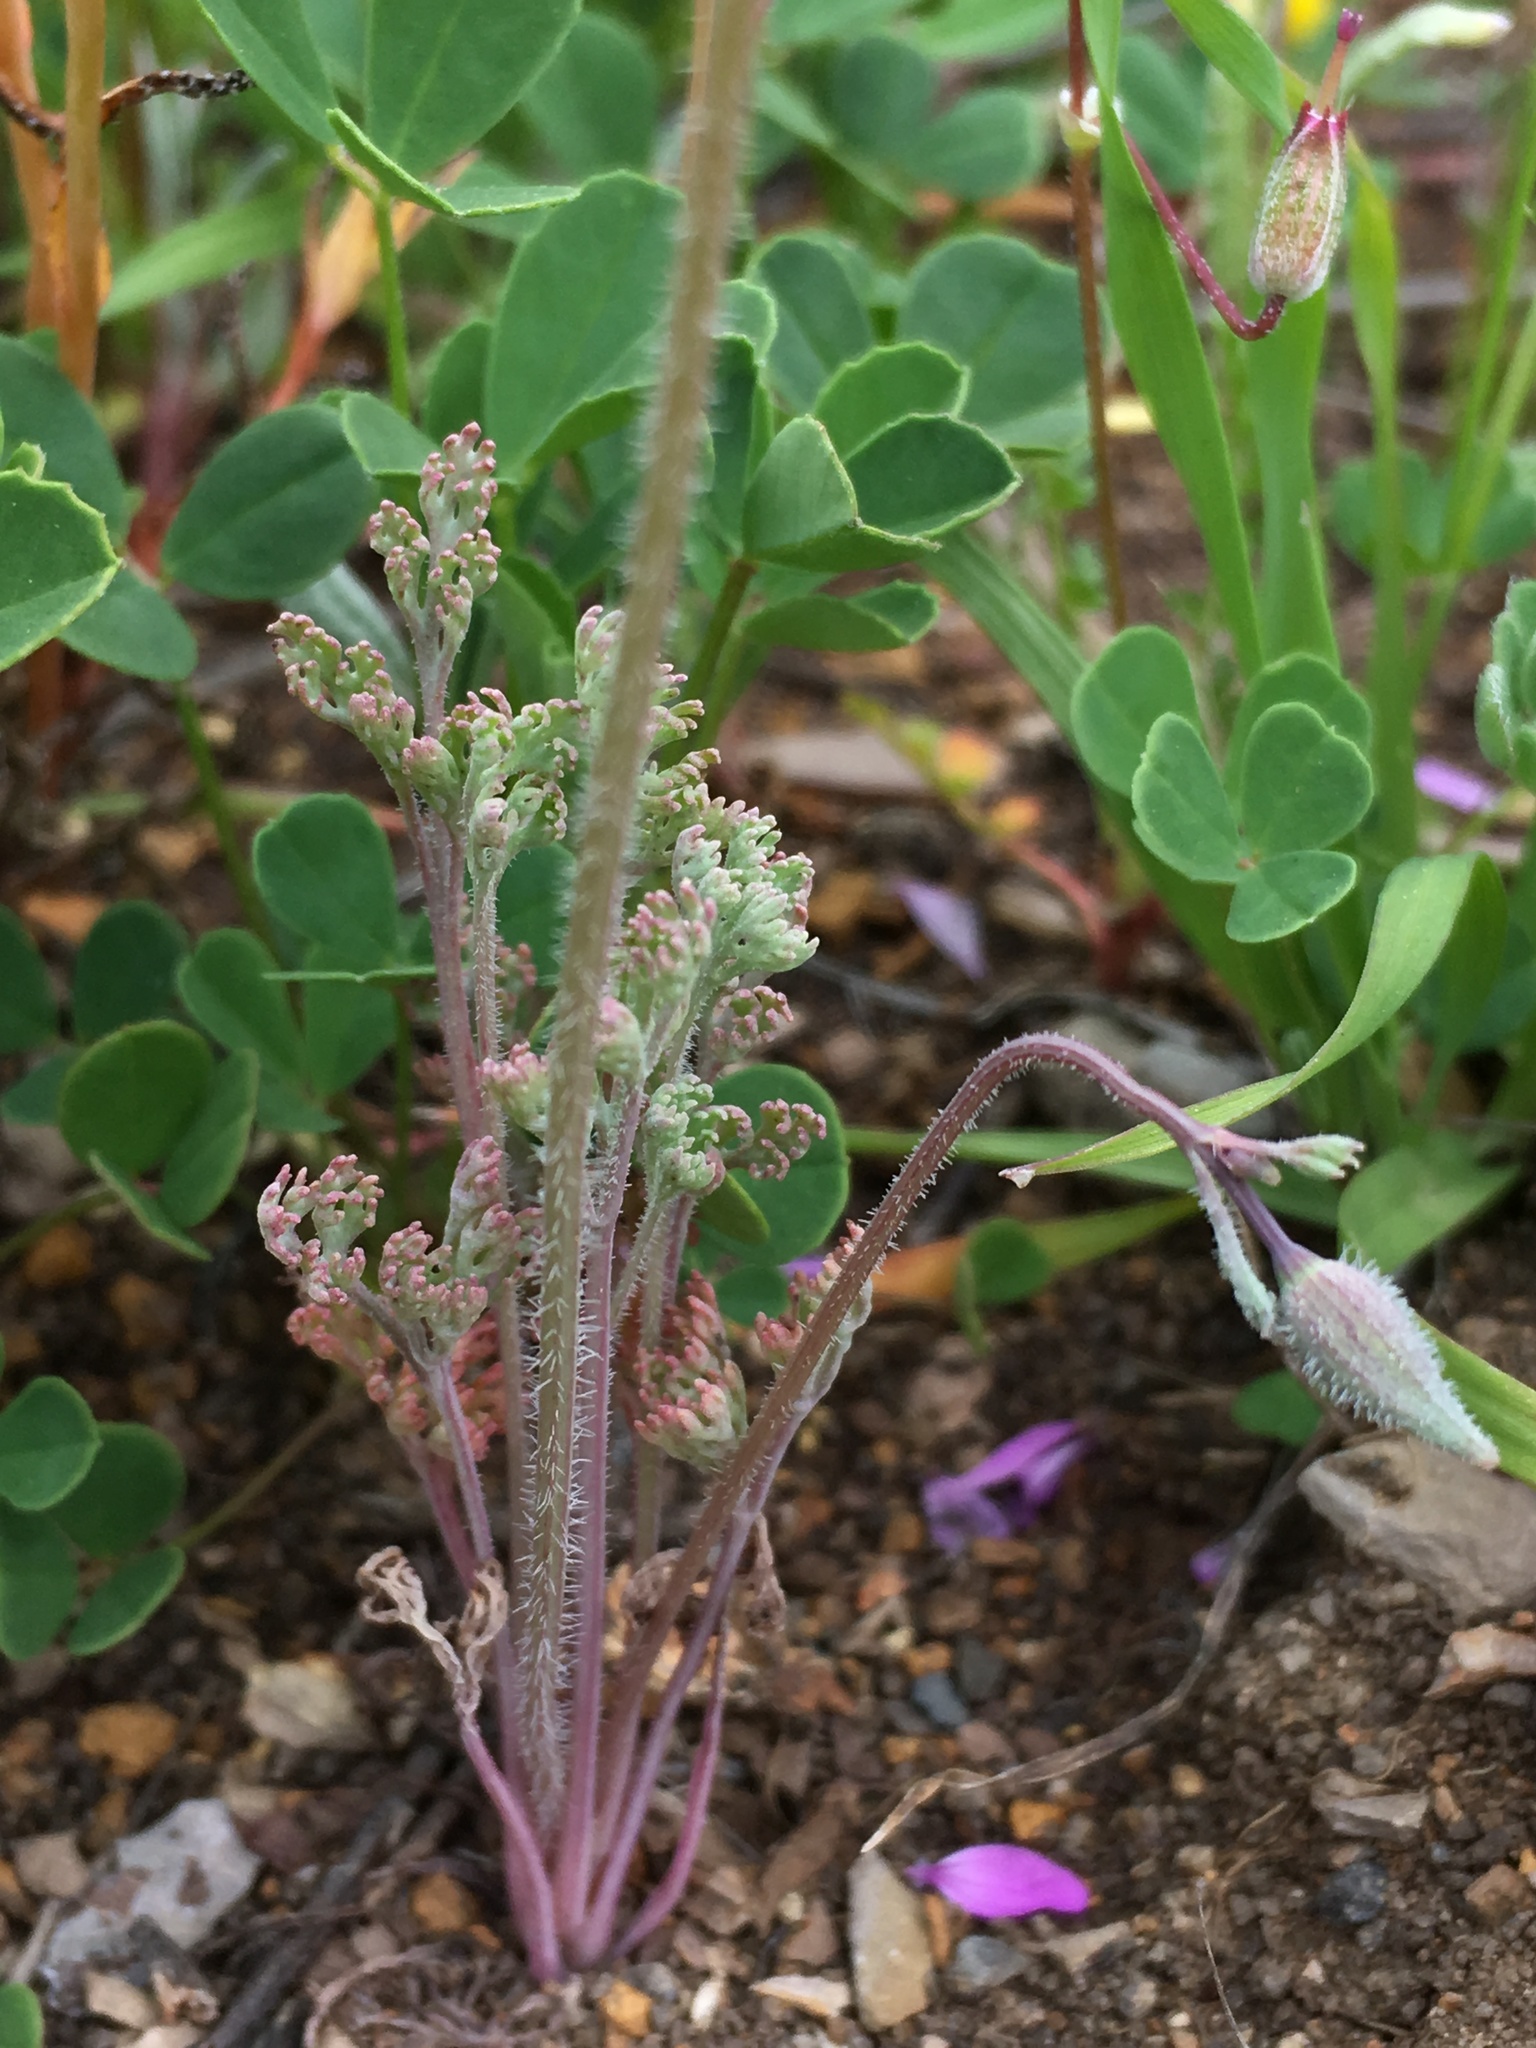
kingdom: Plantae
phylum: Tracheophyta
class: Magnoliopsida
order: Ranunculales
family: Papaveraceae
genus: Eschscholzia
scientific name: Eschscholzia hypecoides
